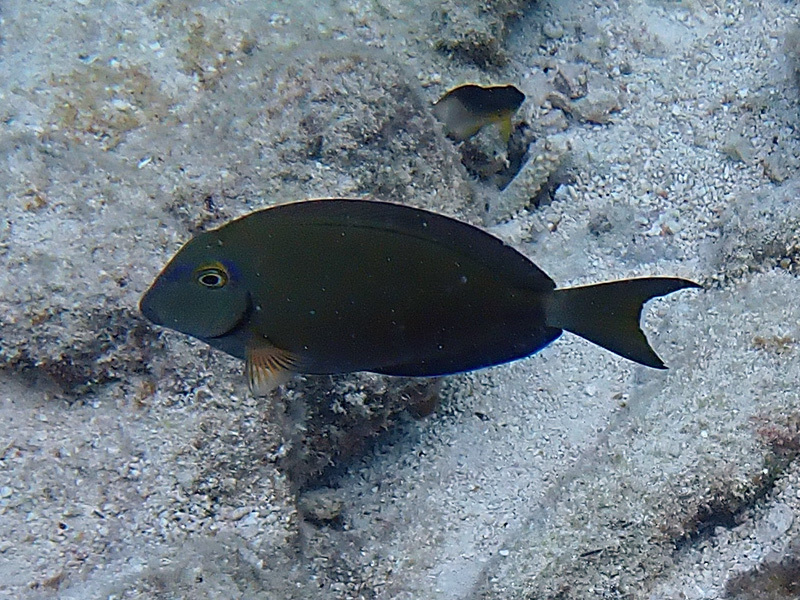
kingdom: Animalia
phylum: Chordata
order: Perciformes
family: Acanthuridae
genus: Acanthurus
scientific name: Acanthurus bahianus
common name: Ocean surgeon
